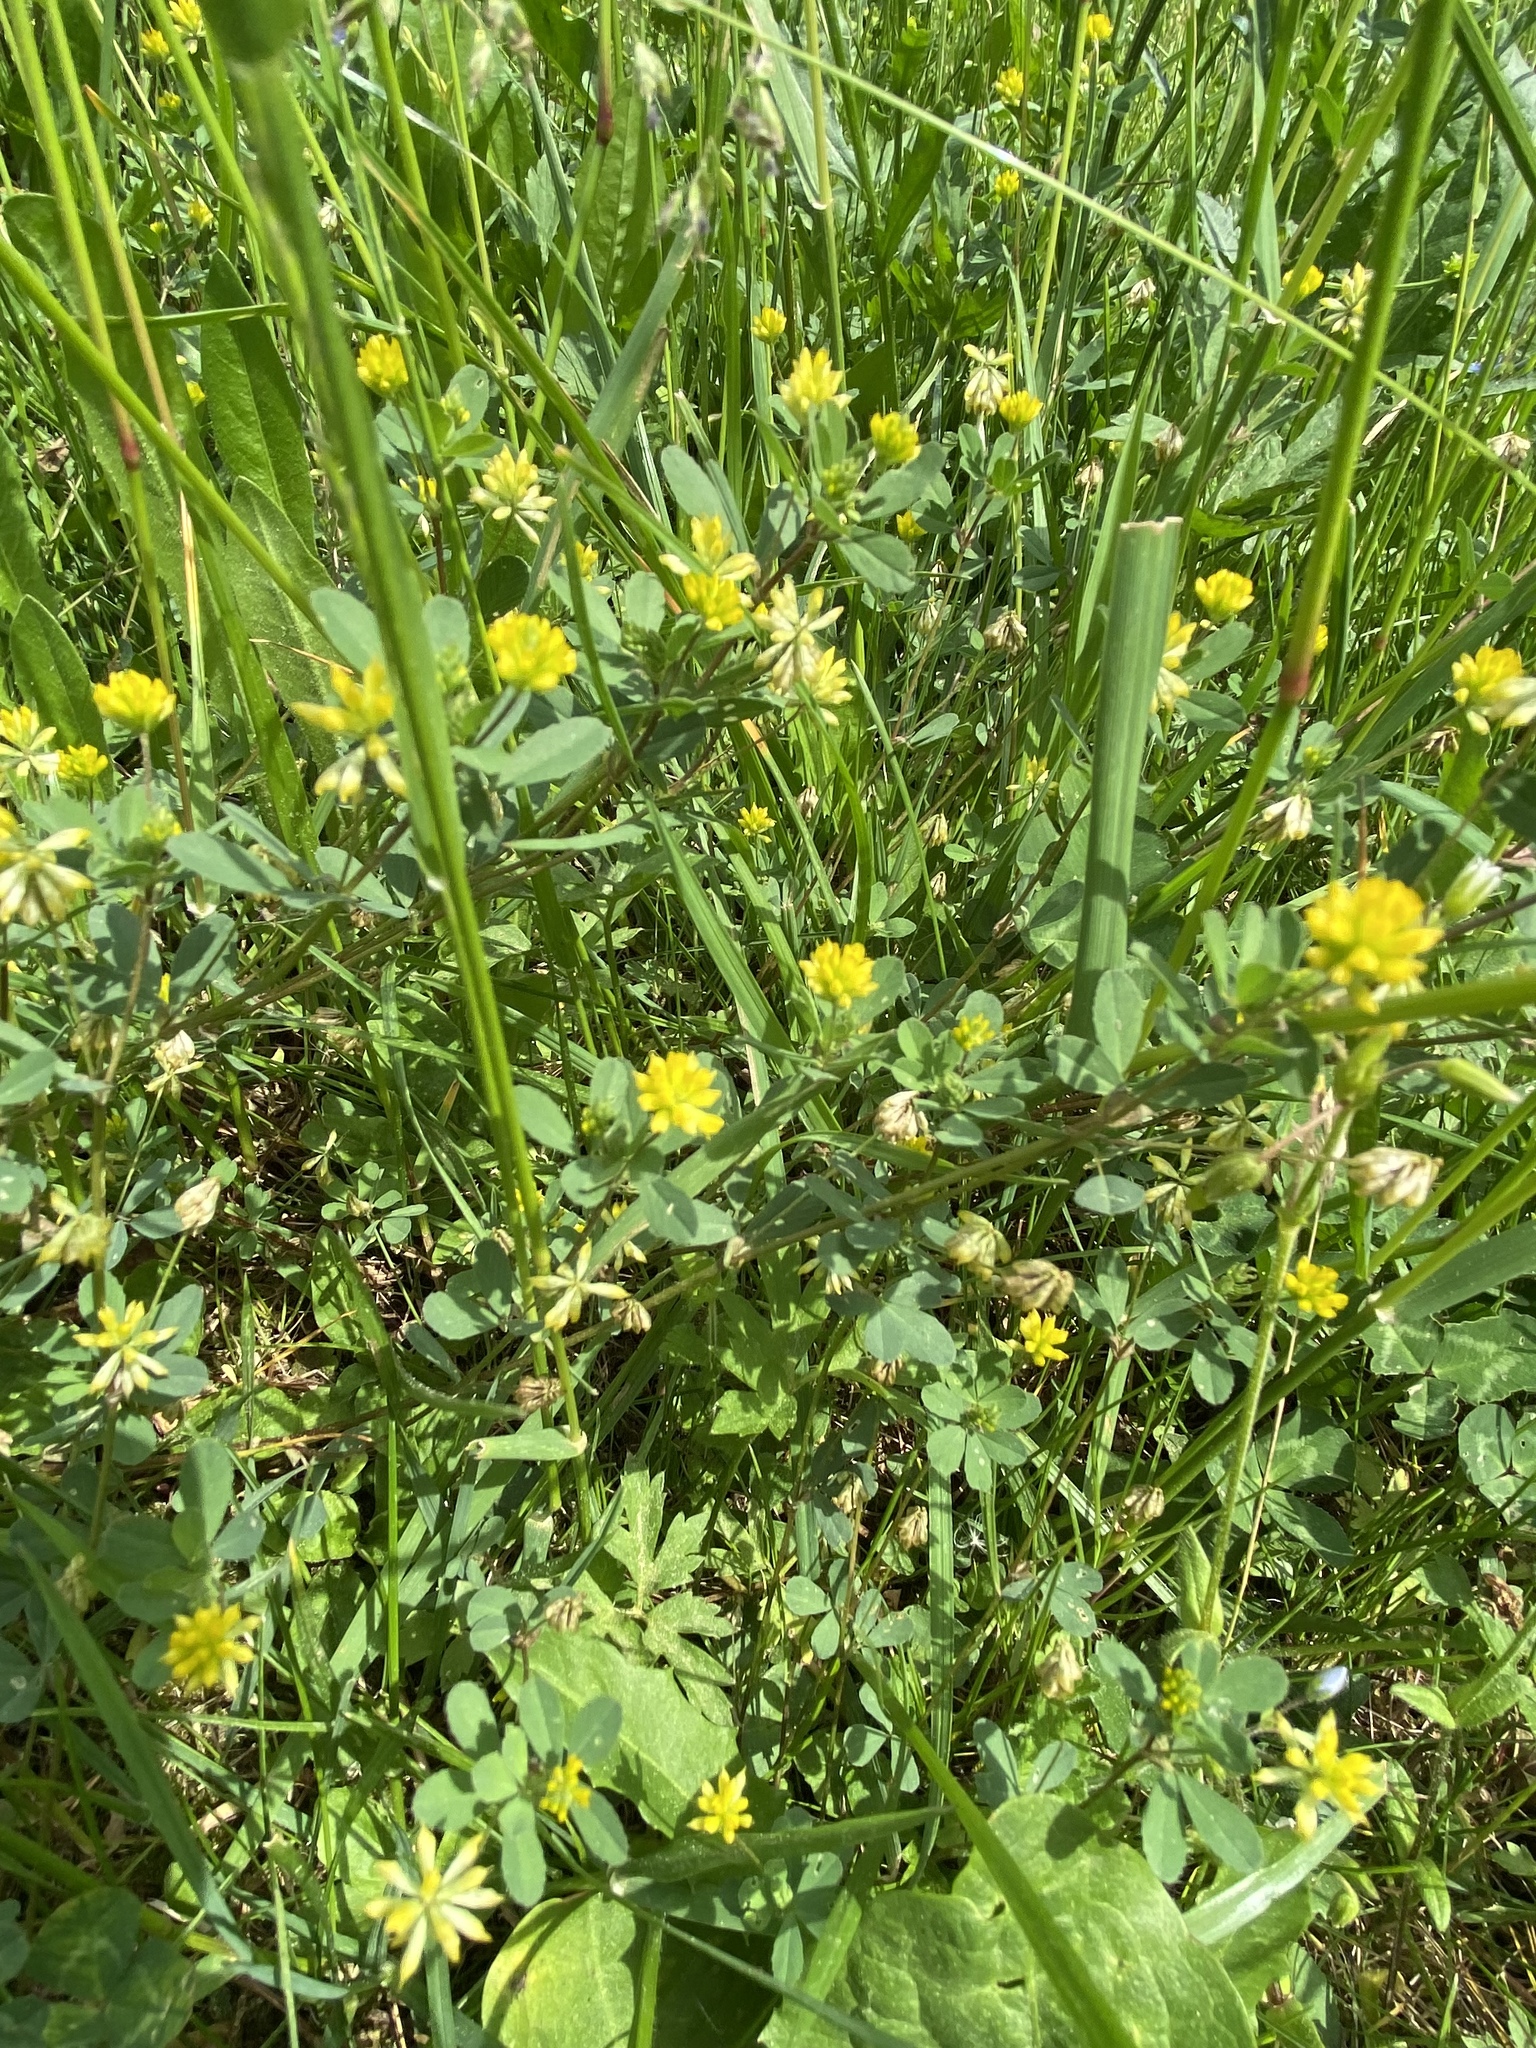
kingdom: Plantae
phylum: Tracheophyta
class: Magnoliopsida
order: Fabales
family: Fabaceae
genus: Trifolium
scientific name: Trifolium dubium
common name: Suckling clover
